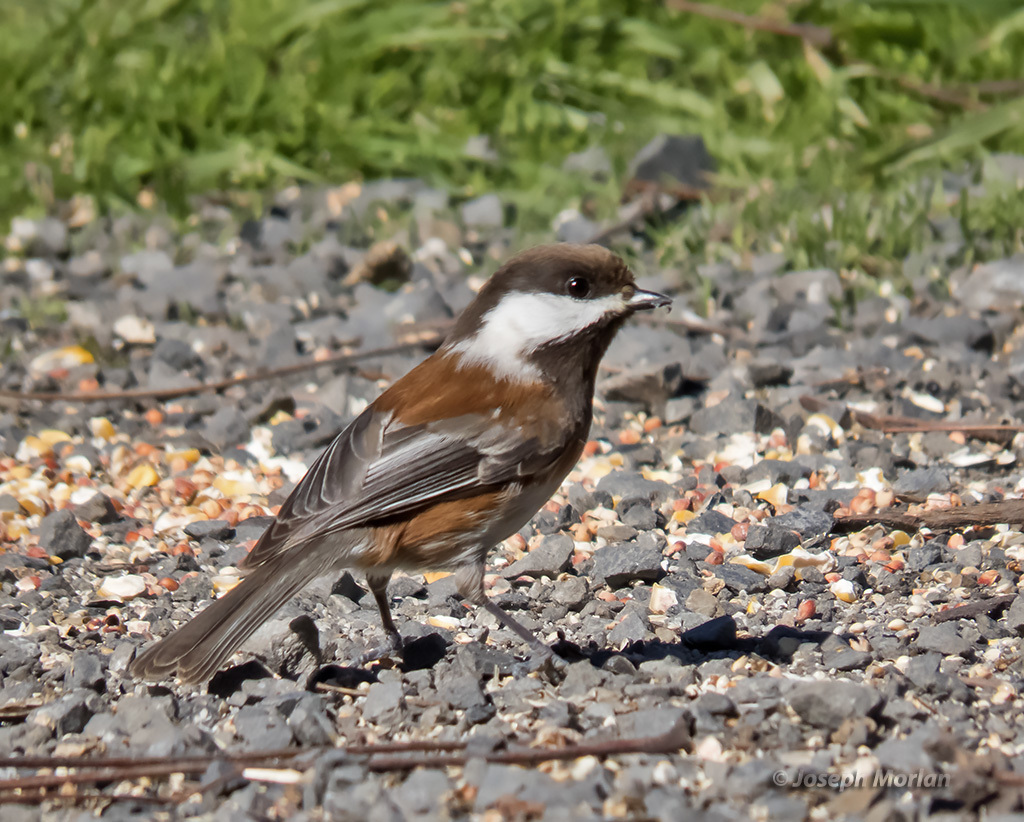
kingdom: Animalia
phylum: Chordata
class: Aves
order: Passeriformes
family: Paridae
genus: Poecile
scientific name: Poecile rufescens
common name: Chestnut-backed chickadee
